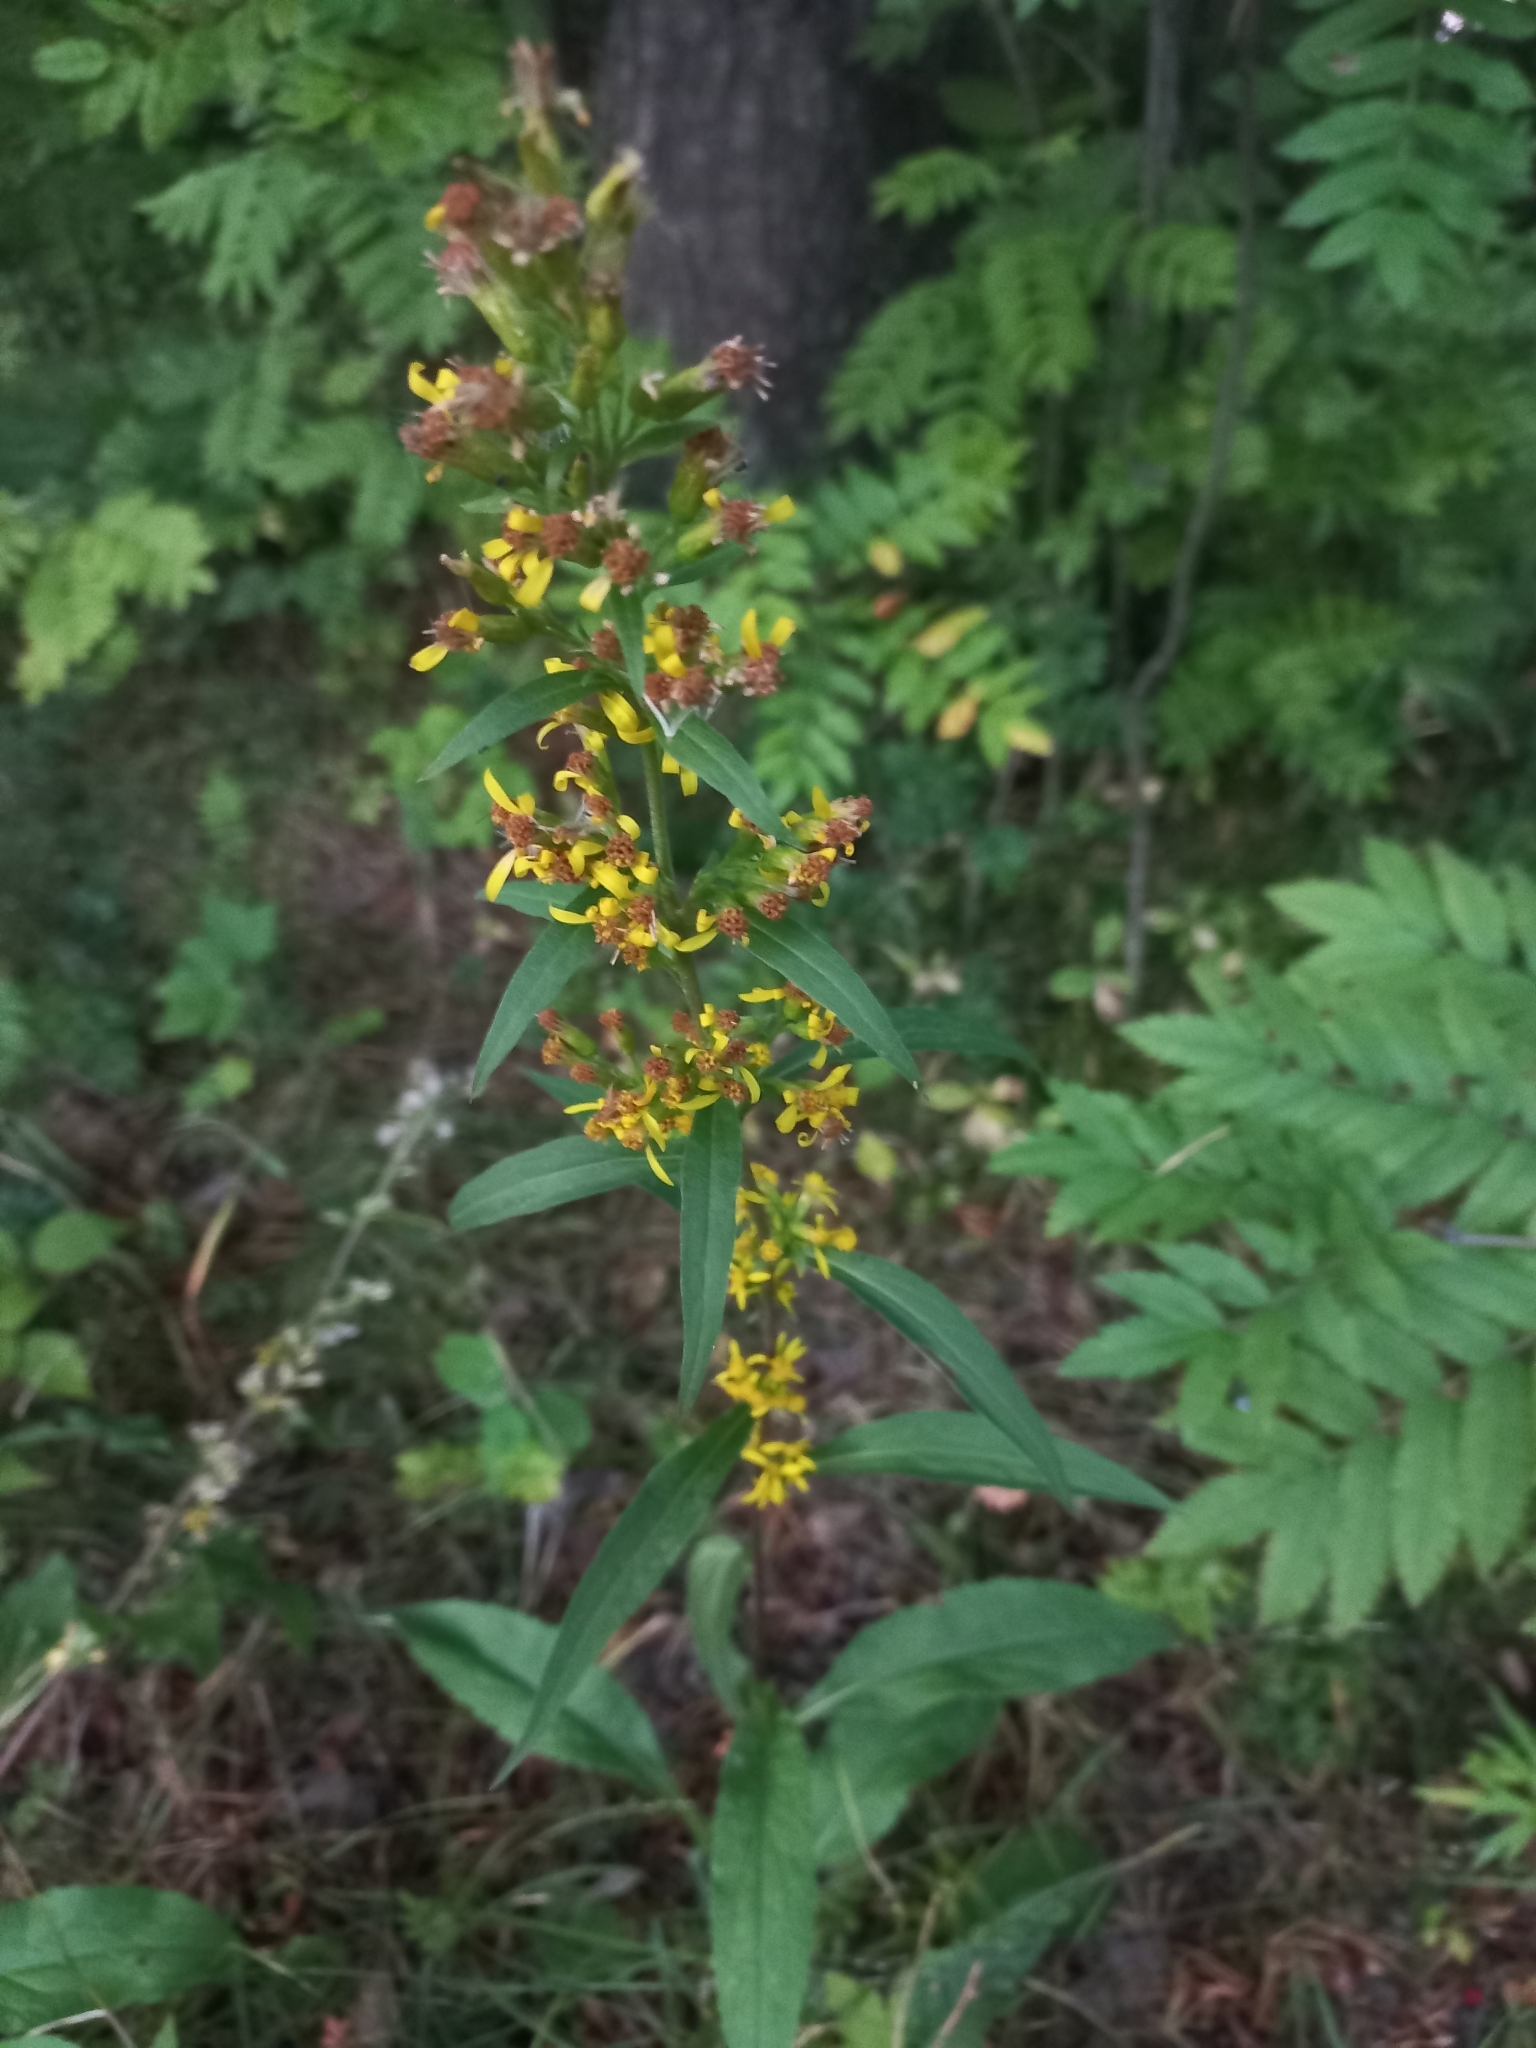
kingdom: Plantae
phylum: Tracheophyta
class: Magnoliopsida
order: Asterales
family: Asteraceae
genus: Solidago
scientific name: Solidago virgaurea
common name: Goldenrod
